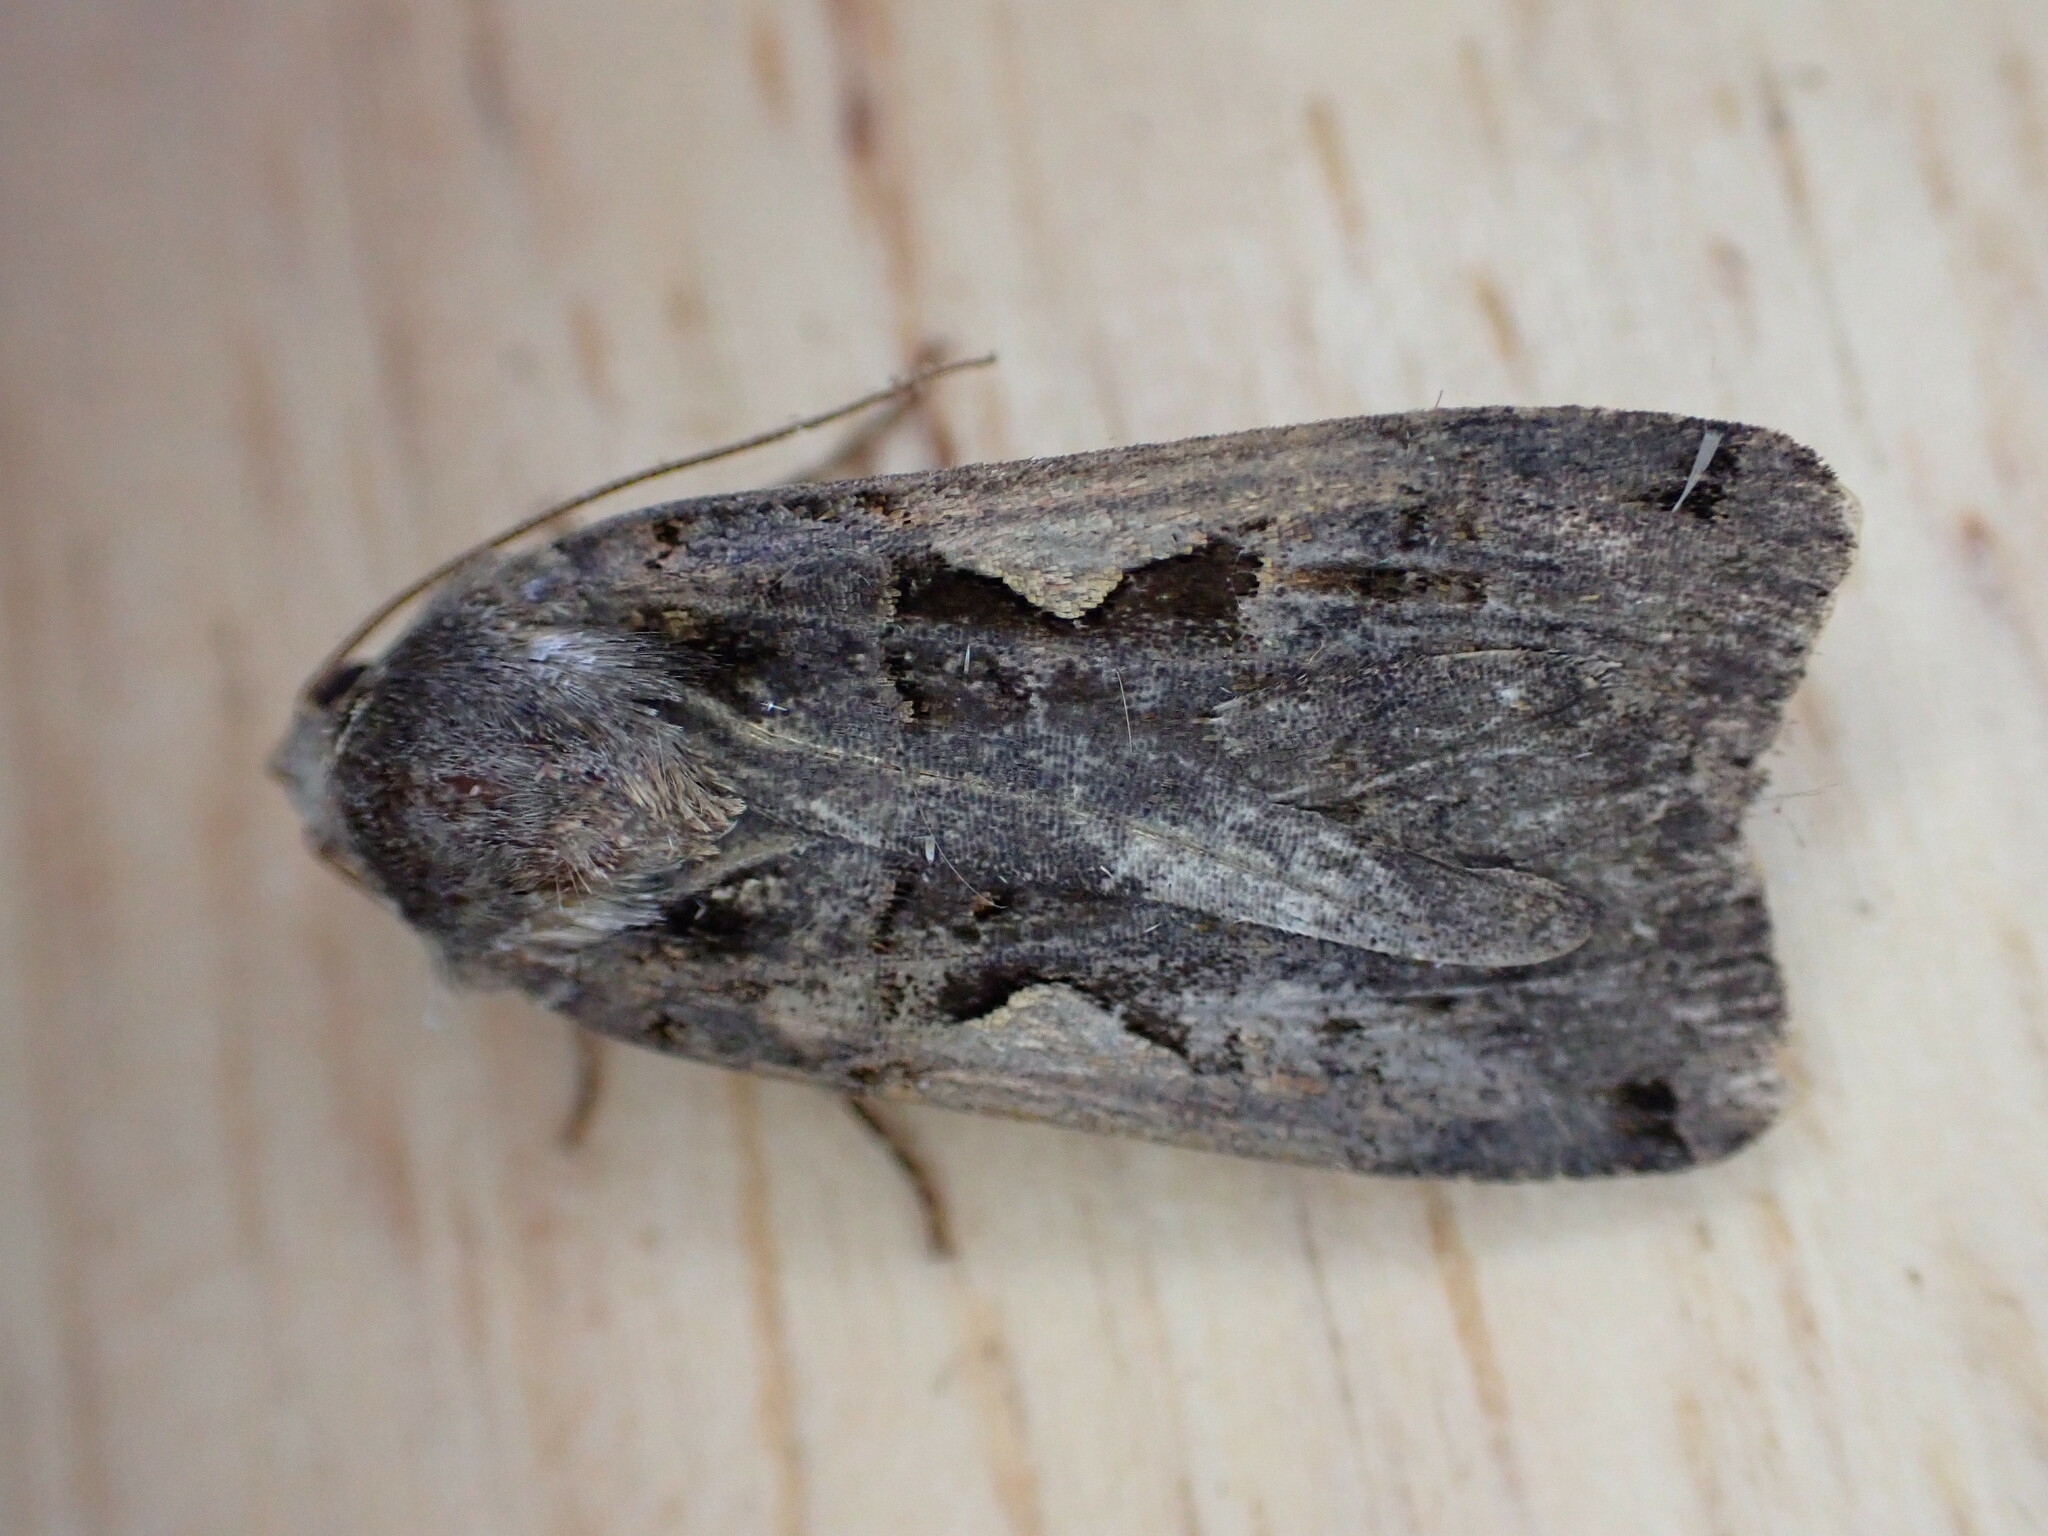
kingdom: Animalia
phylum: Arthropoda
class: Insecta
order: Lepidoptera
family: Noctuidae
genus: Xestia
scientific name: Xestia c-nigrum
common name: Setaceous hebrew character
